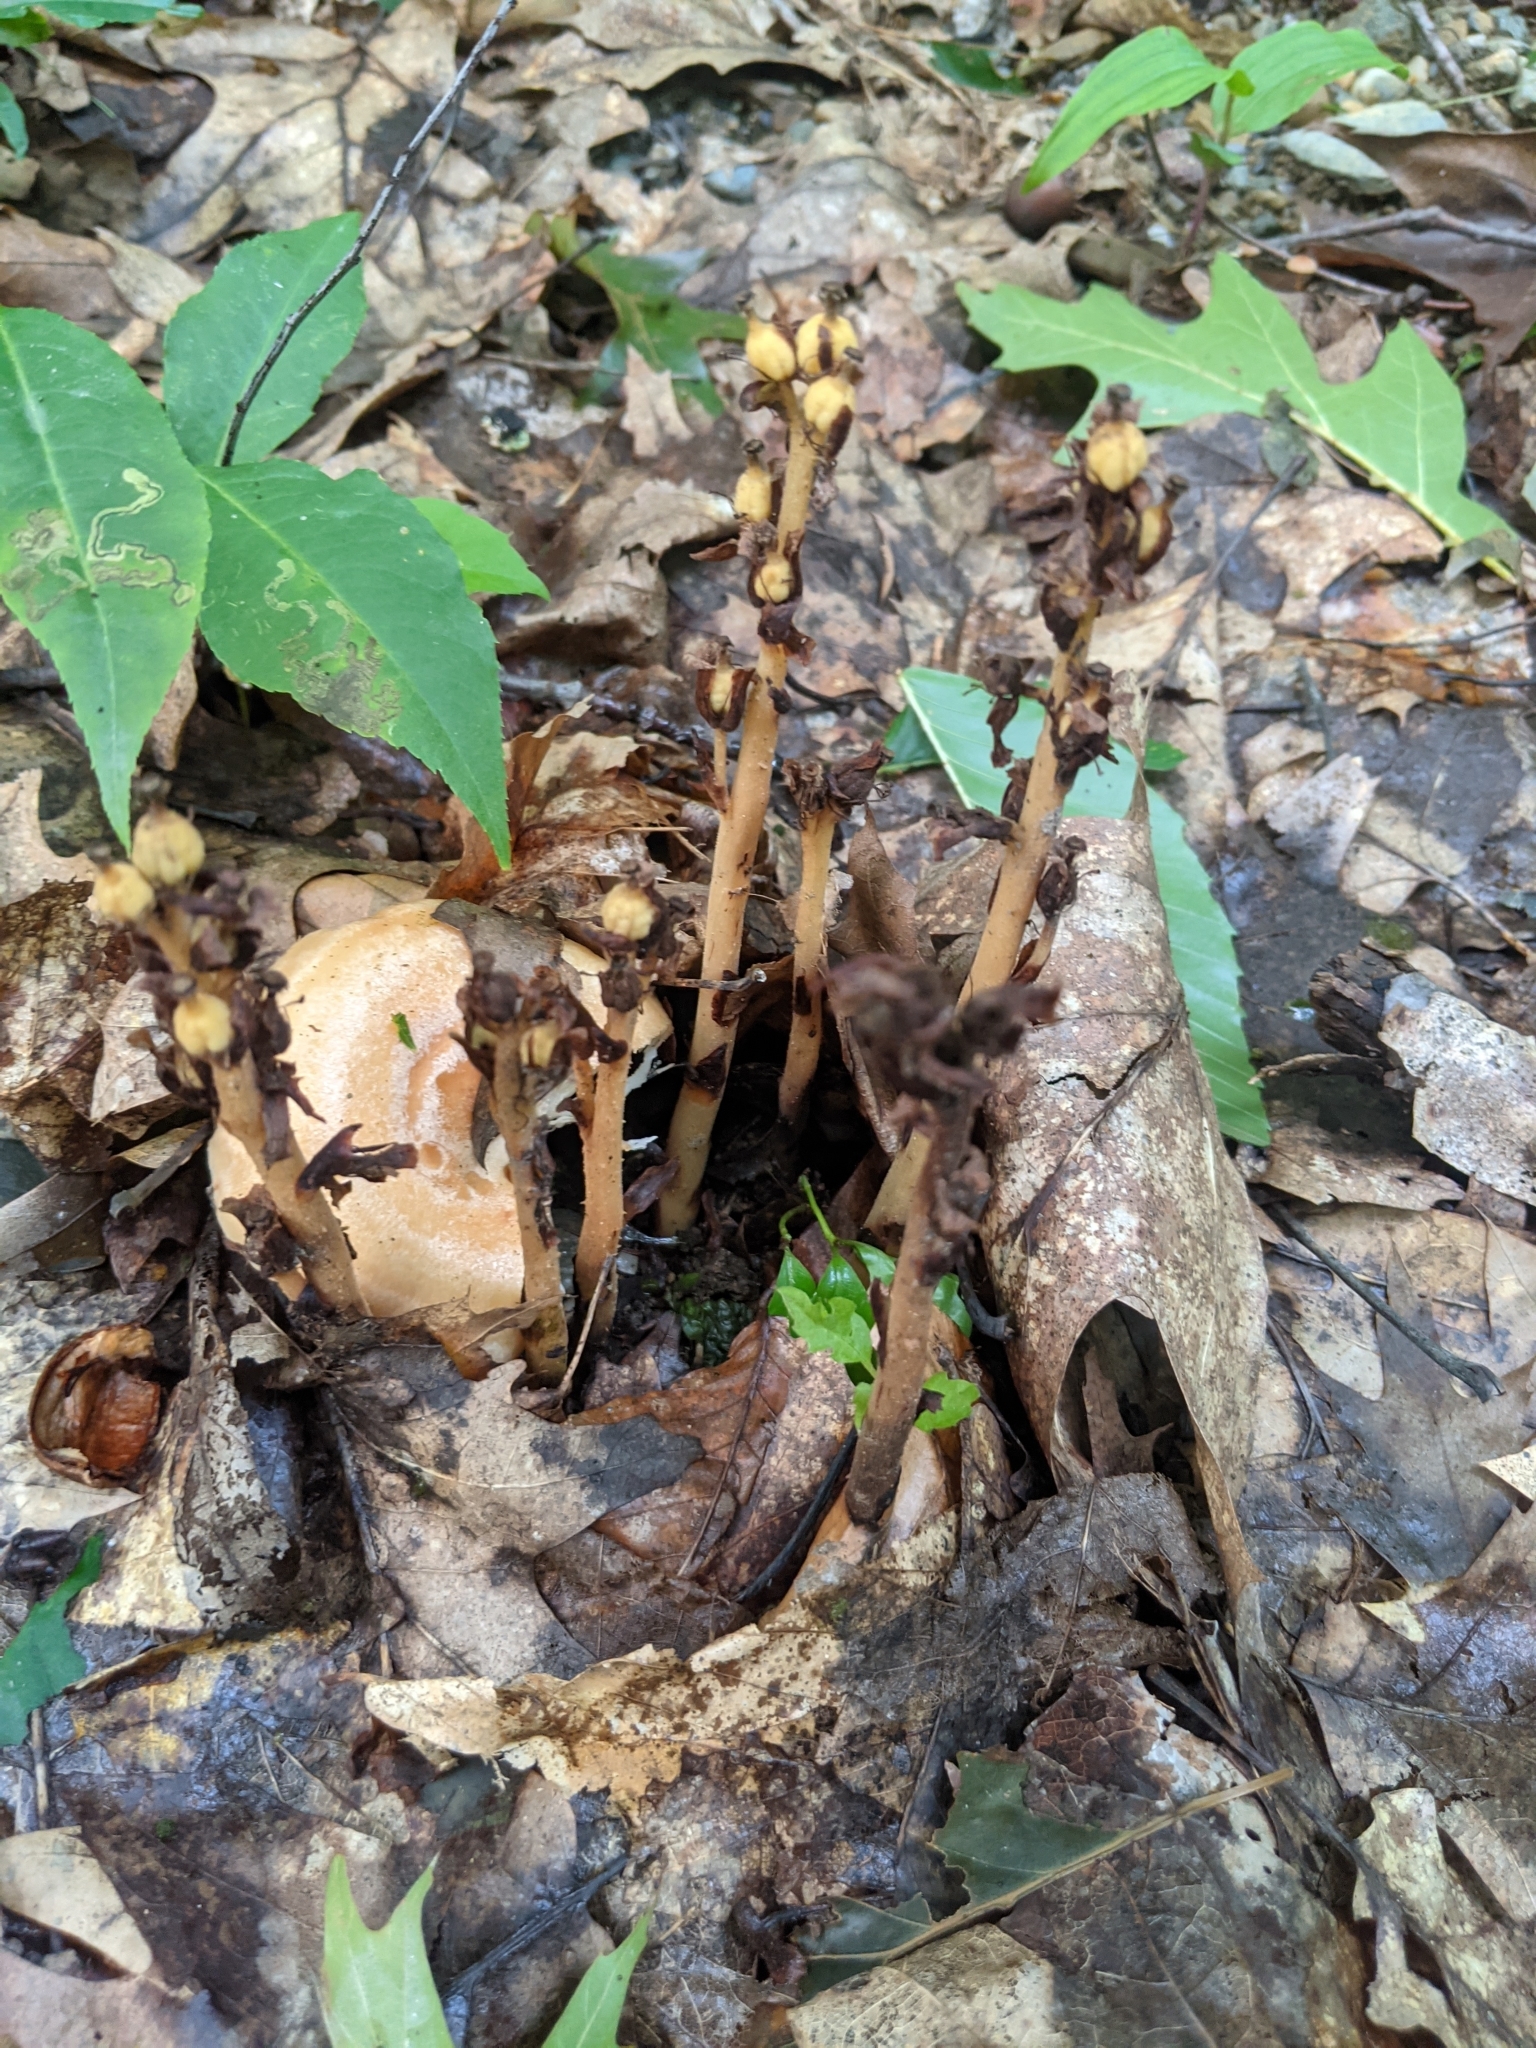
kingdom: Plantae
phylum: Tracheophyta
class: Magnoliopsida
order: Ericales
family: Ericaceae
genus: Hypopitys
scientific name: Hypopitys monotropa
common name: Yellow bird's-nest
